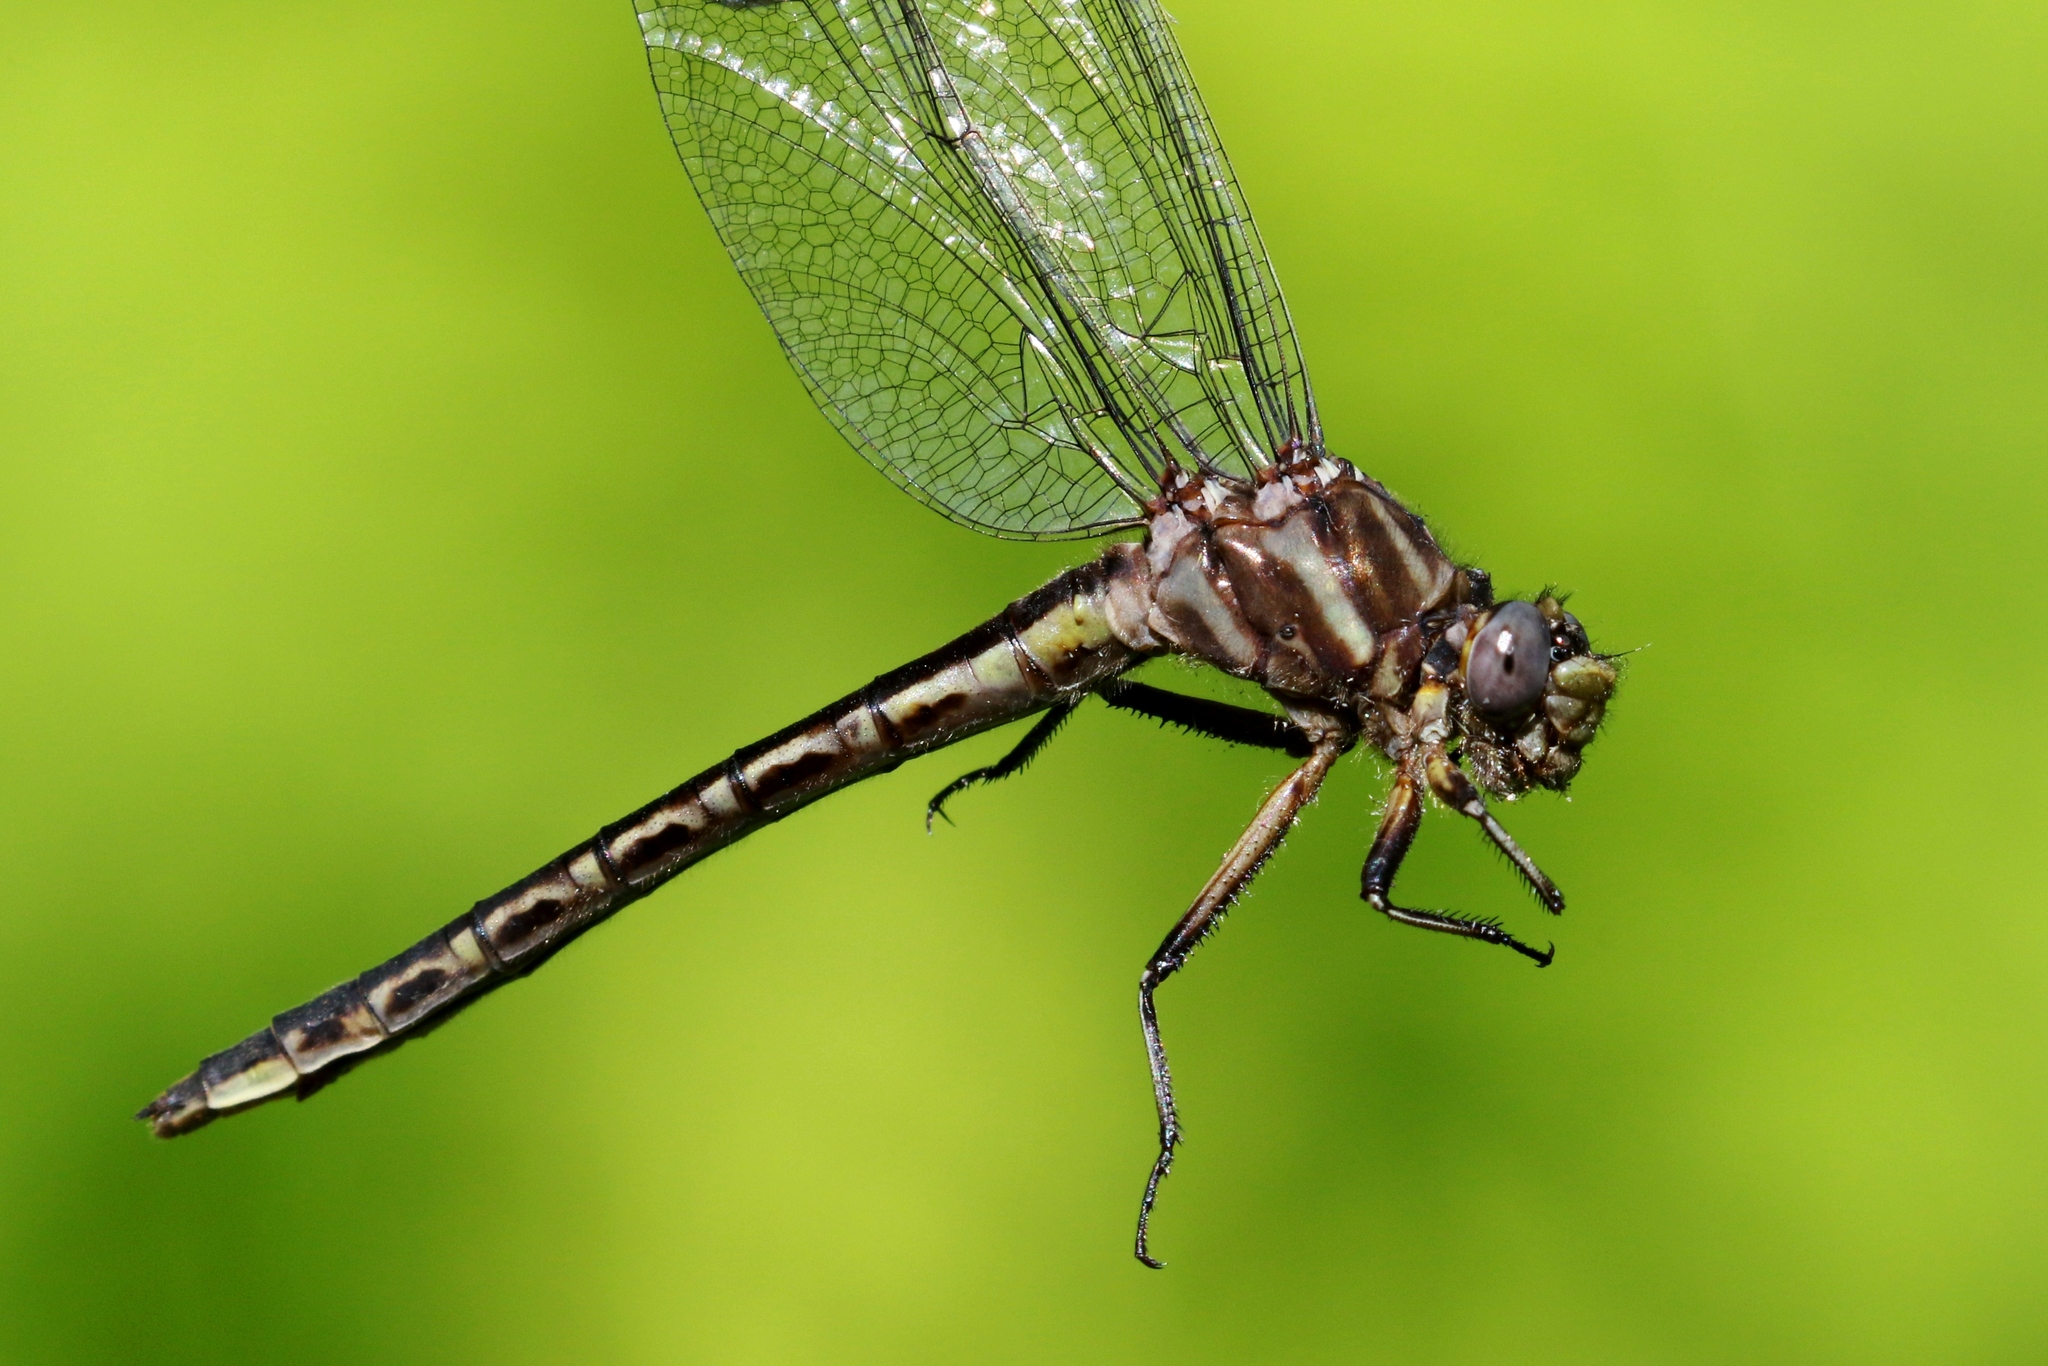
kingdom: Animalia
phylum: Arthropoda
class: Insecta
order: Odonata
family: Gomphidae
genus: Phanogomphus
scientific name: Phanogomphus spicatus
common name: Dusky clubtail
